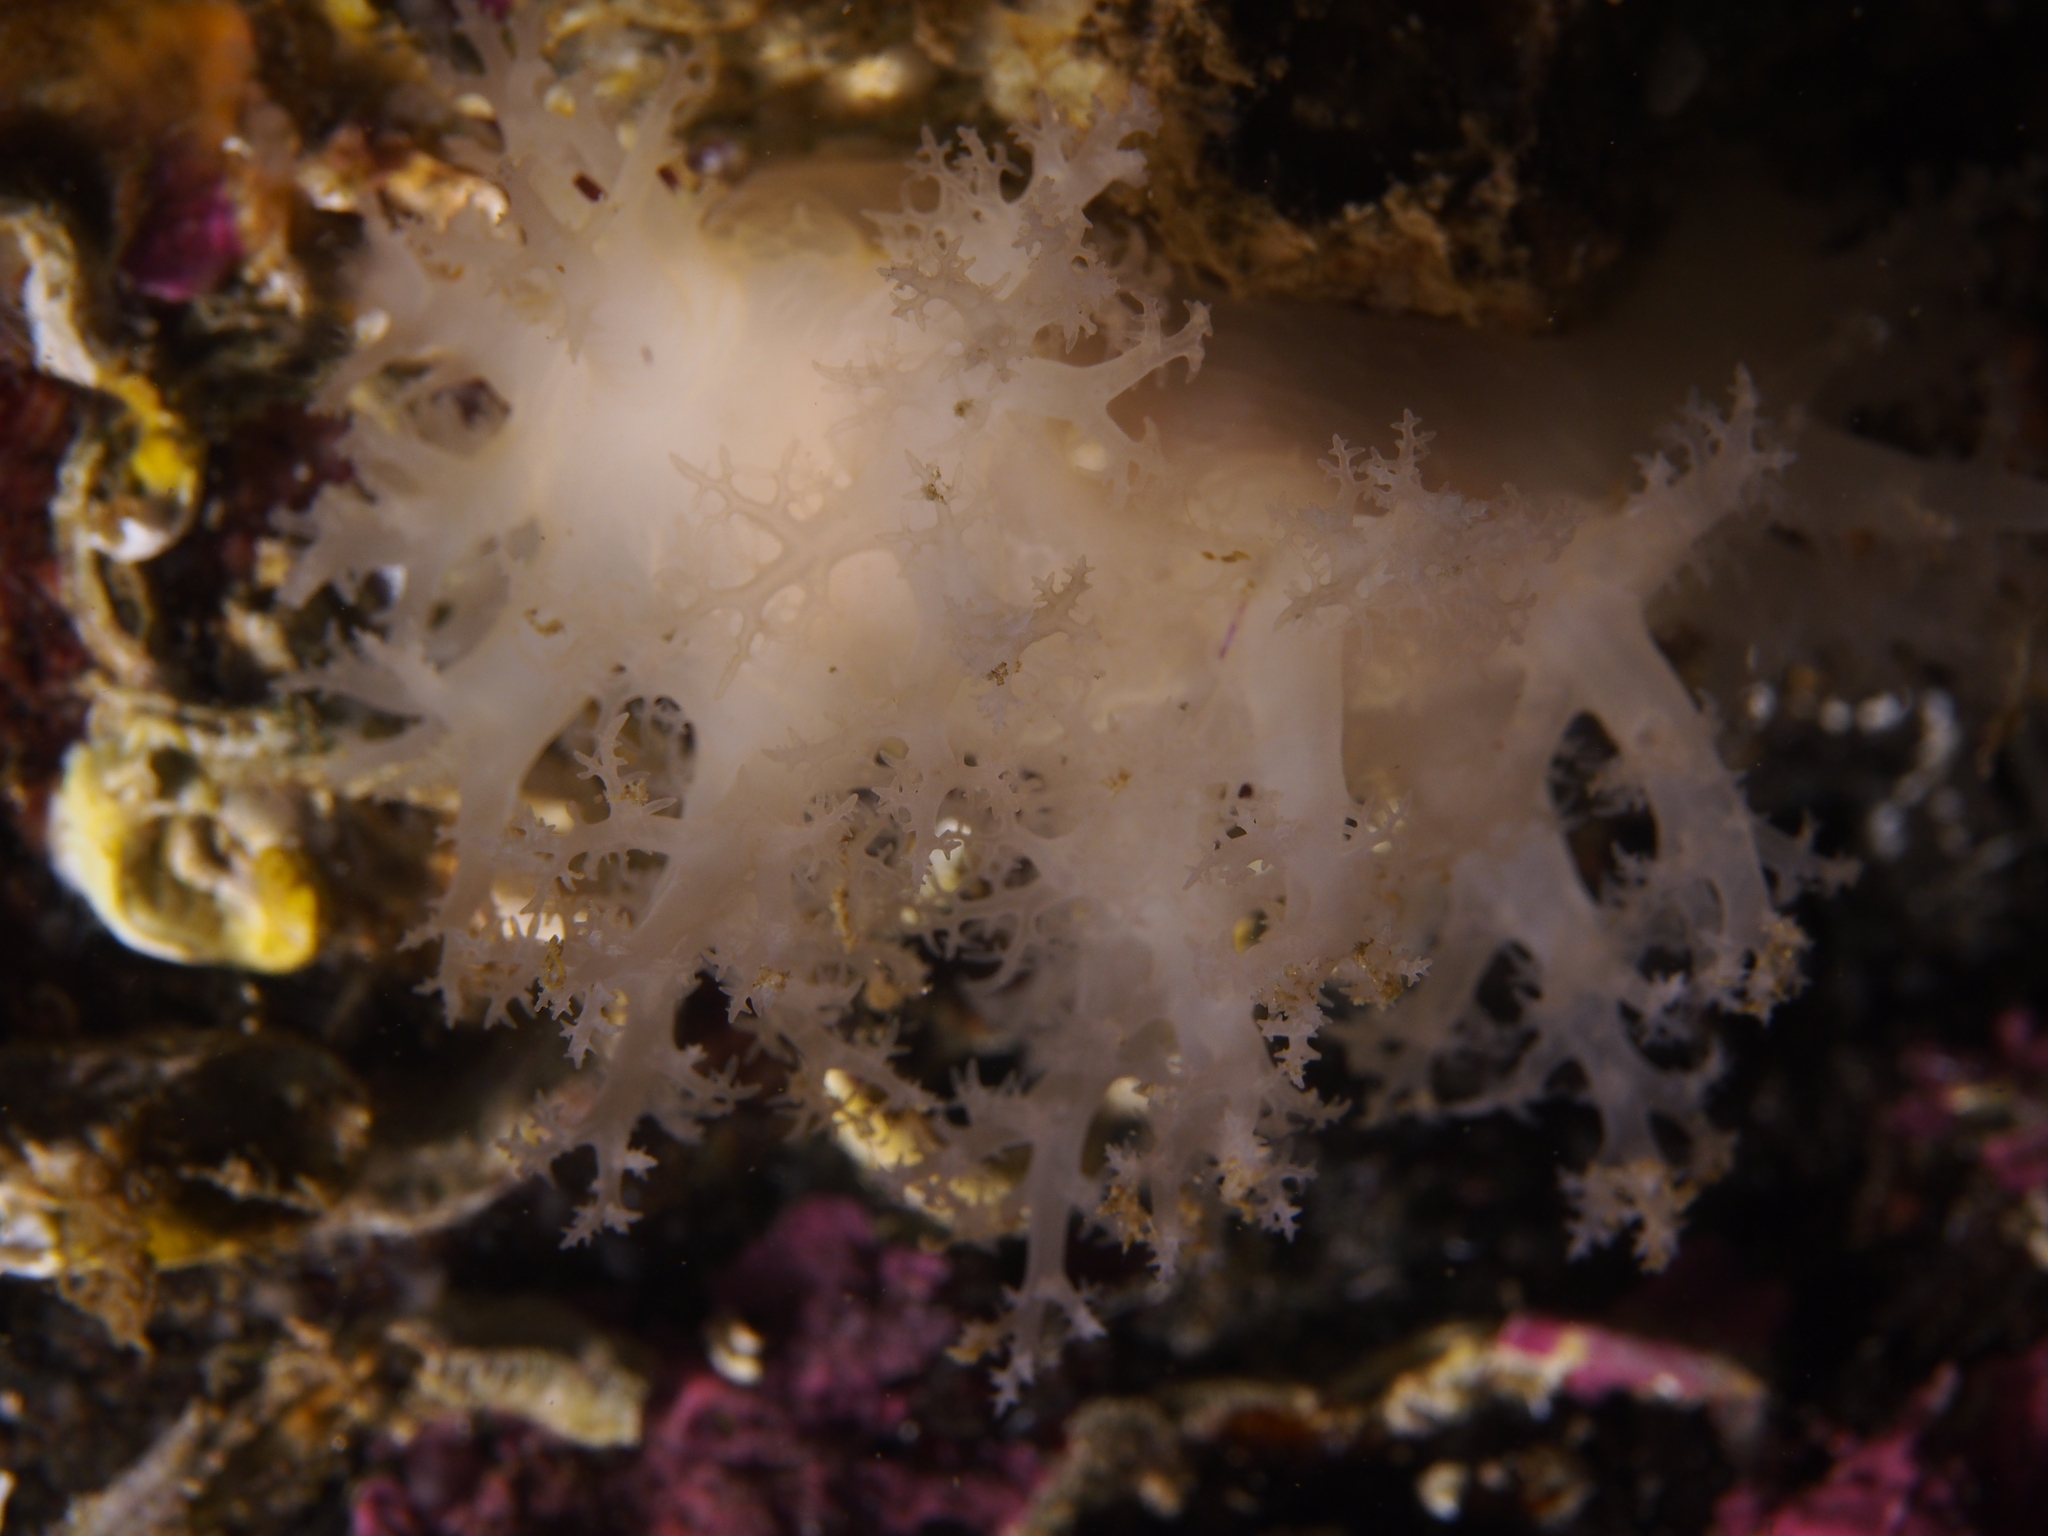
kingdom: Animalia
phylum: Mollusca
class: Gastropoda
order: Nudibranchia
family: Dendronotidae
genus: Dendronotus
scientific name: Dendronotus lacteus
